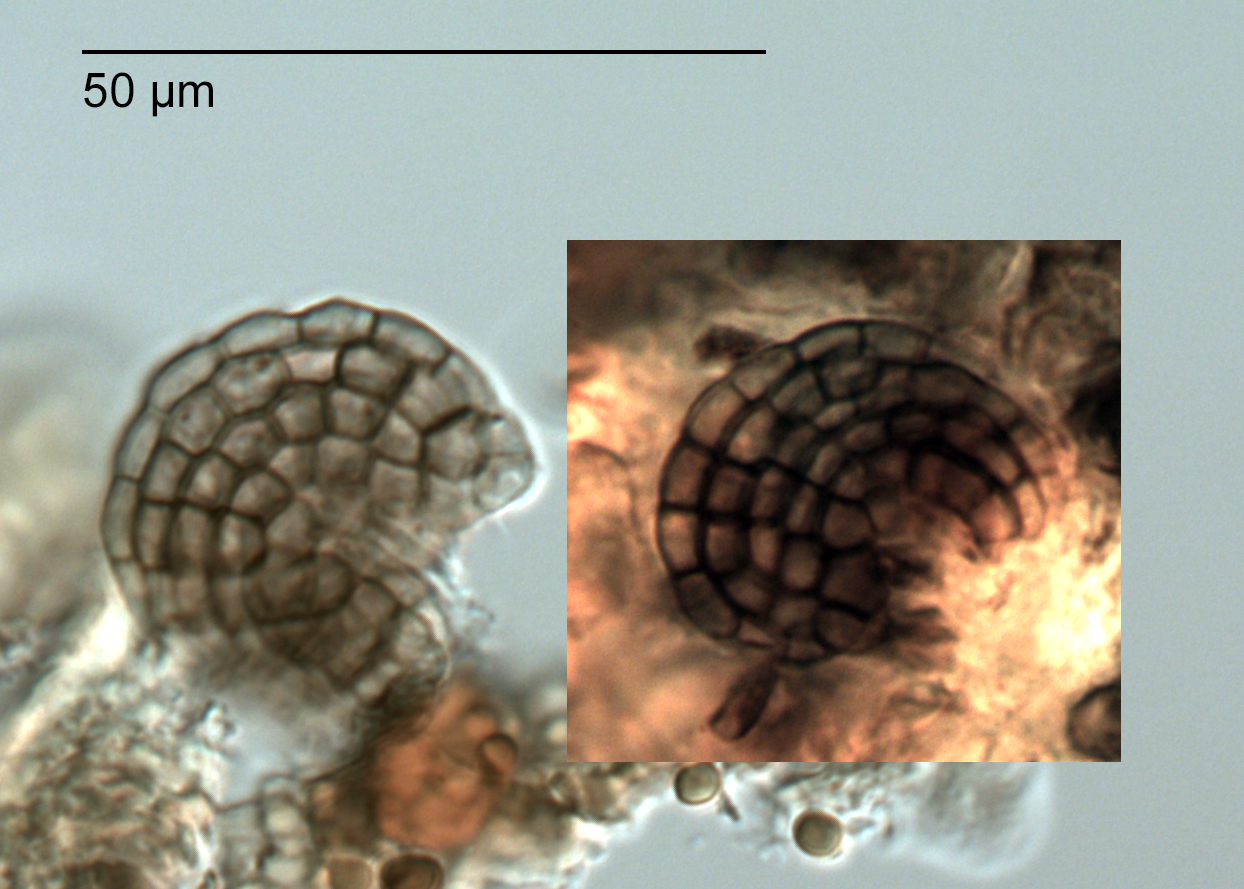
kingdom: Fungi
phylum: Ascomycota
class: Dothideomycetes
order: Pleosporales
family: Dictyosporiaceae
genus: Dictyosporium
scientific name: Dictyosporium foliicola
